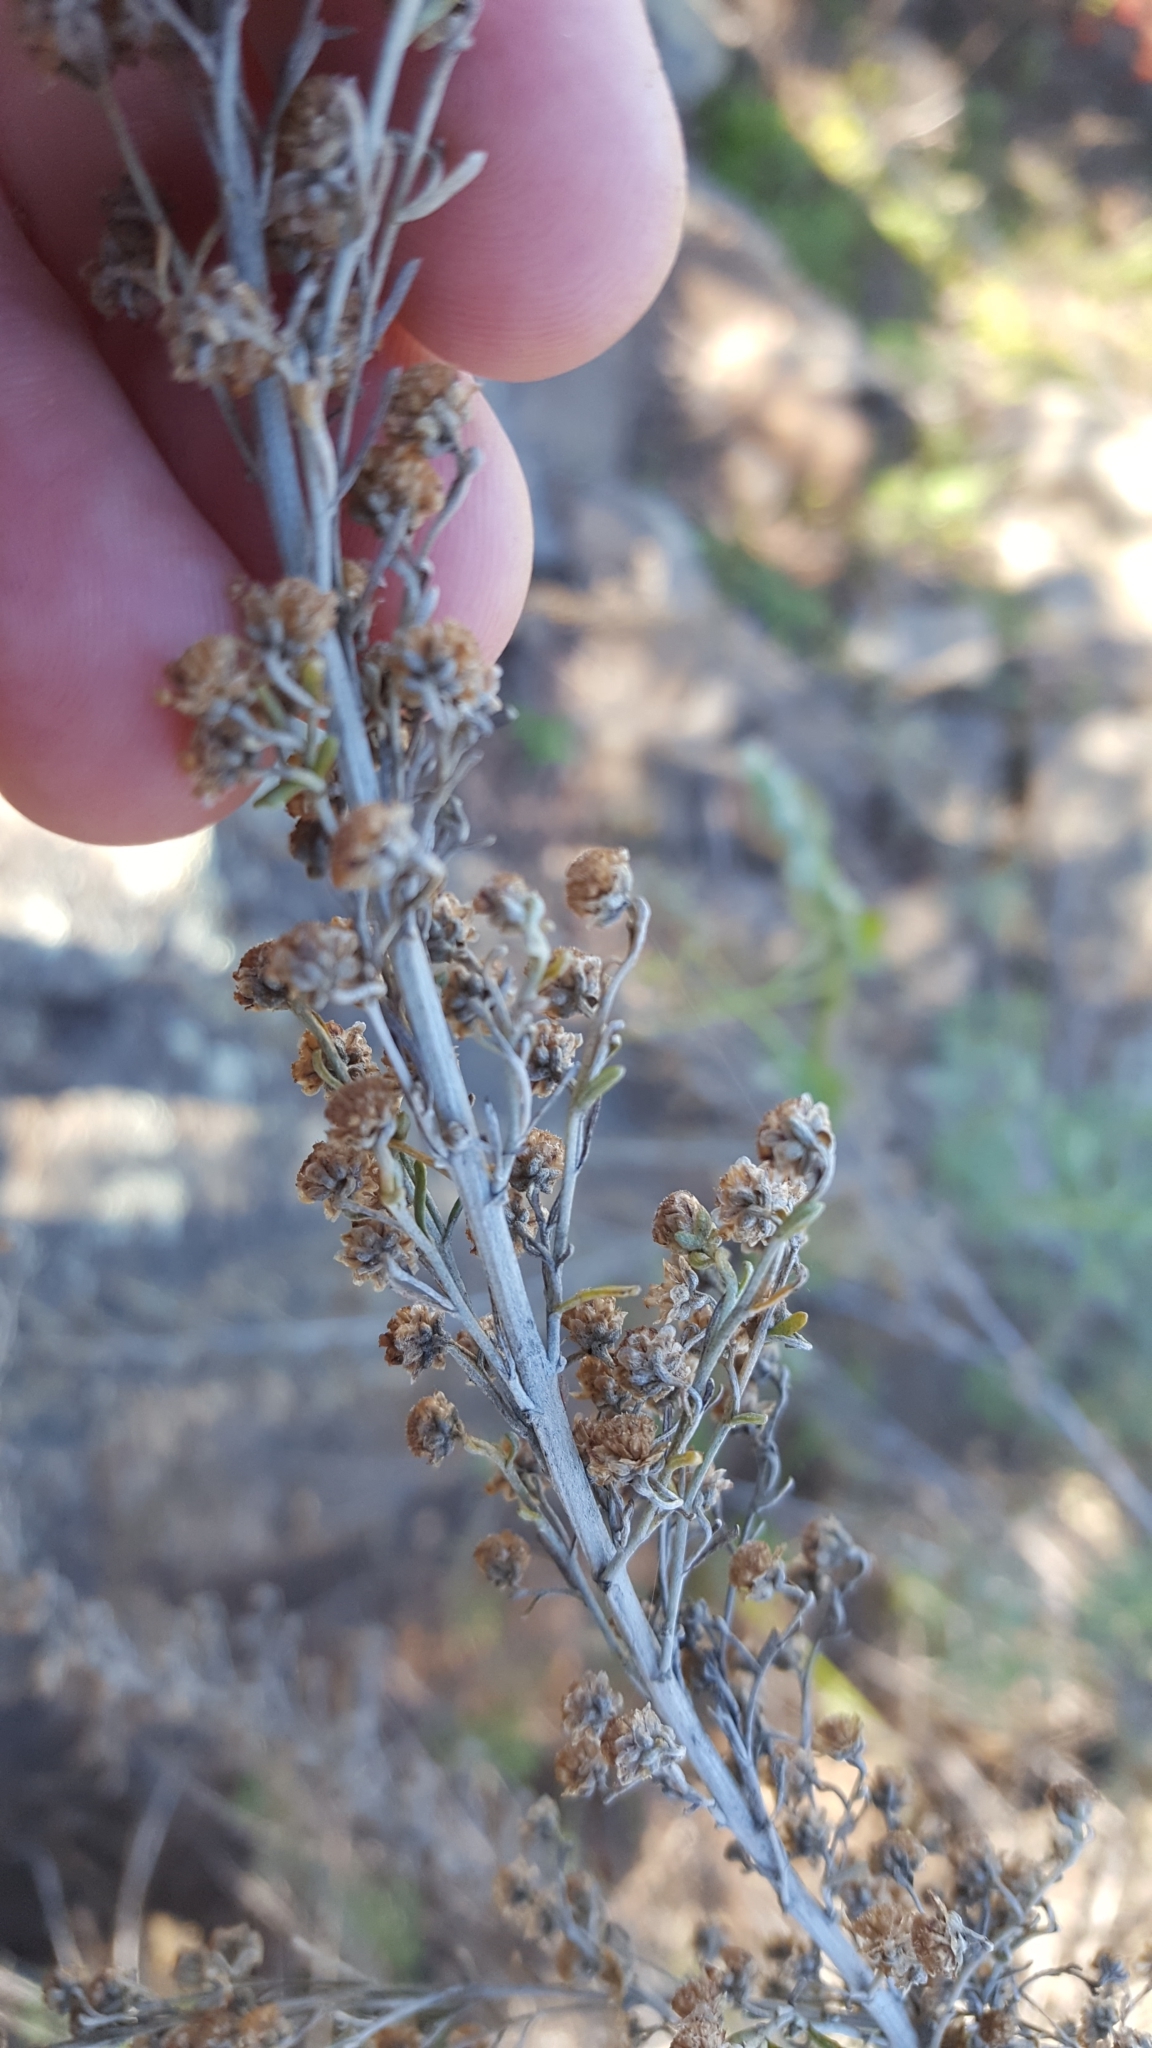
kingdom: Plantae
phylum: Tracheophyta
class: Magnoliopsida
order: Asterales
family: Asteraceae
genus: Artemisia
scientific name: Artemisia californica
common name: California sagebrush
